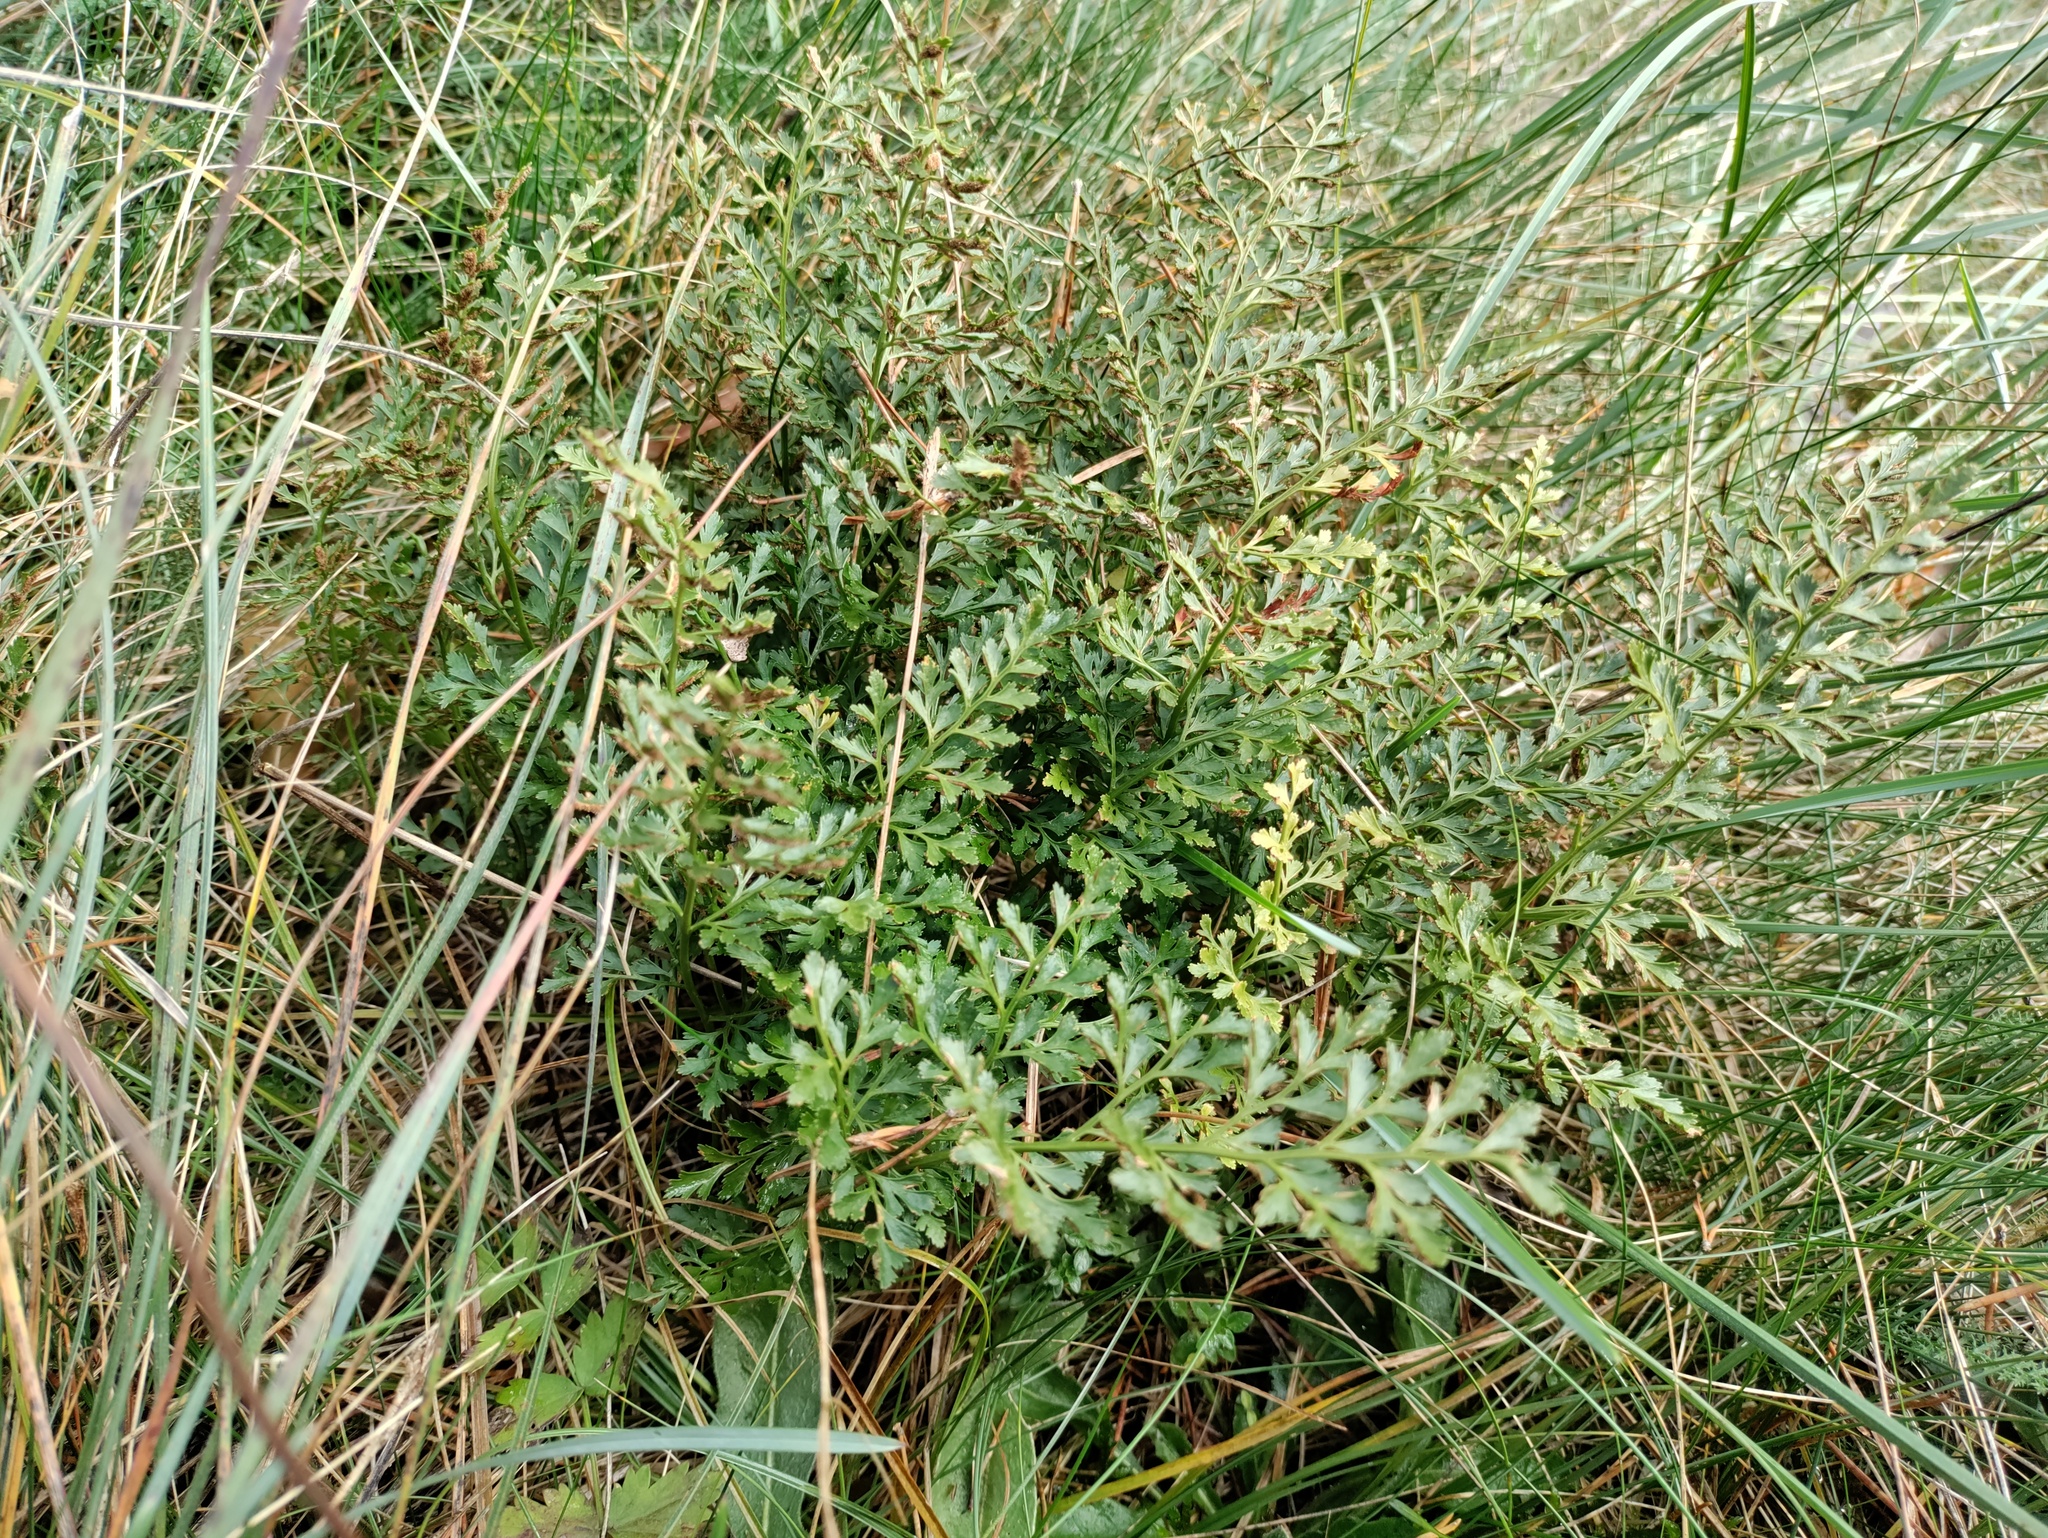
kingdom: Plantae
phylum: Tracheophyta
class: Polypodiopsida
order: Polypodiales
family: Aspleniaceae
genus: Asplenium
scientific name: Asplenium cuneifolium
